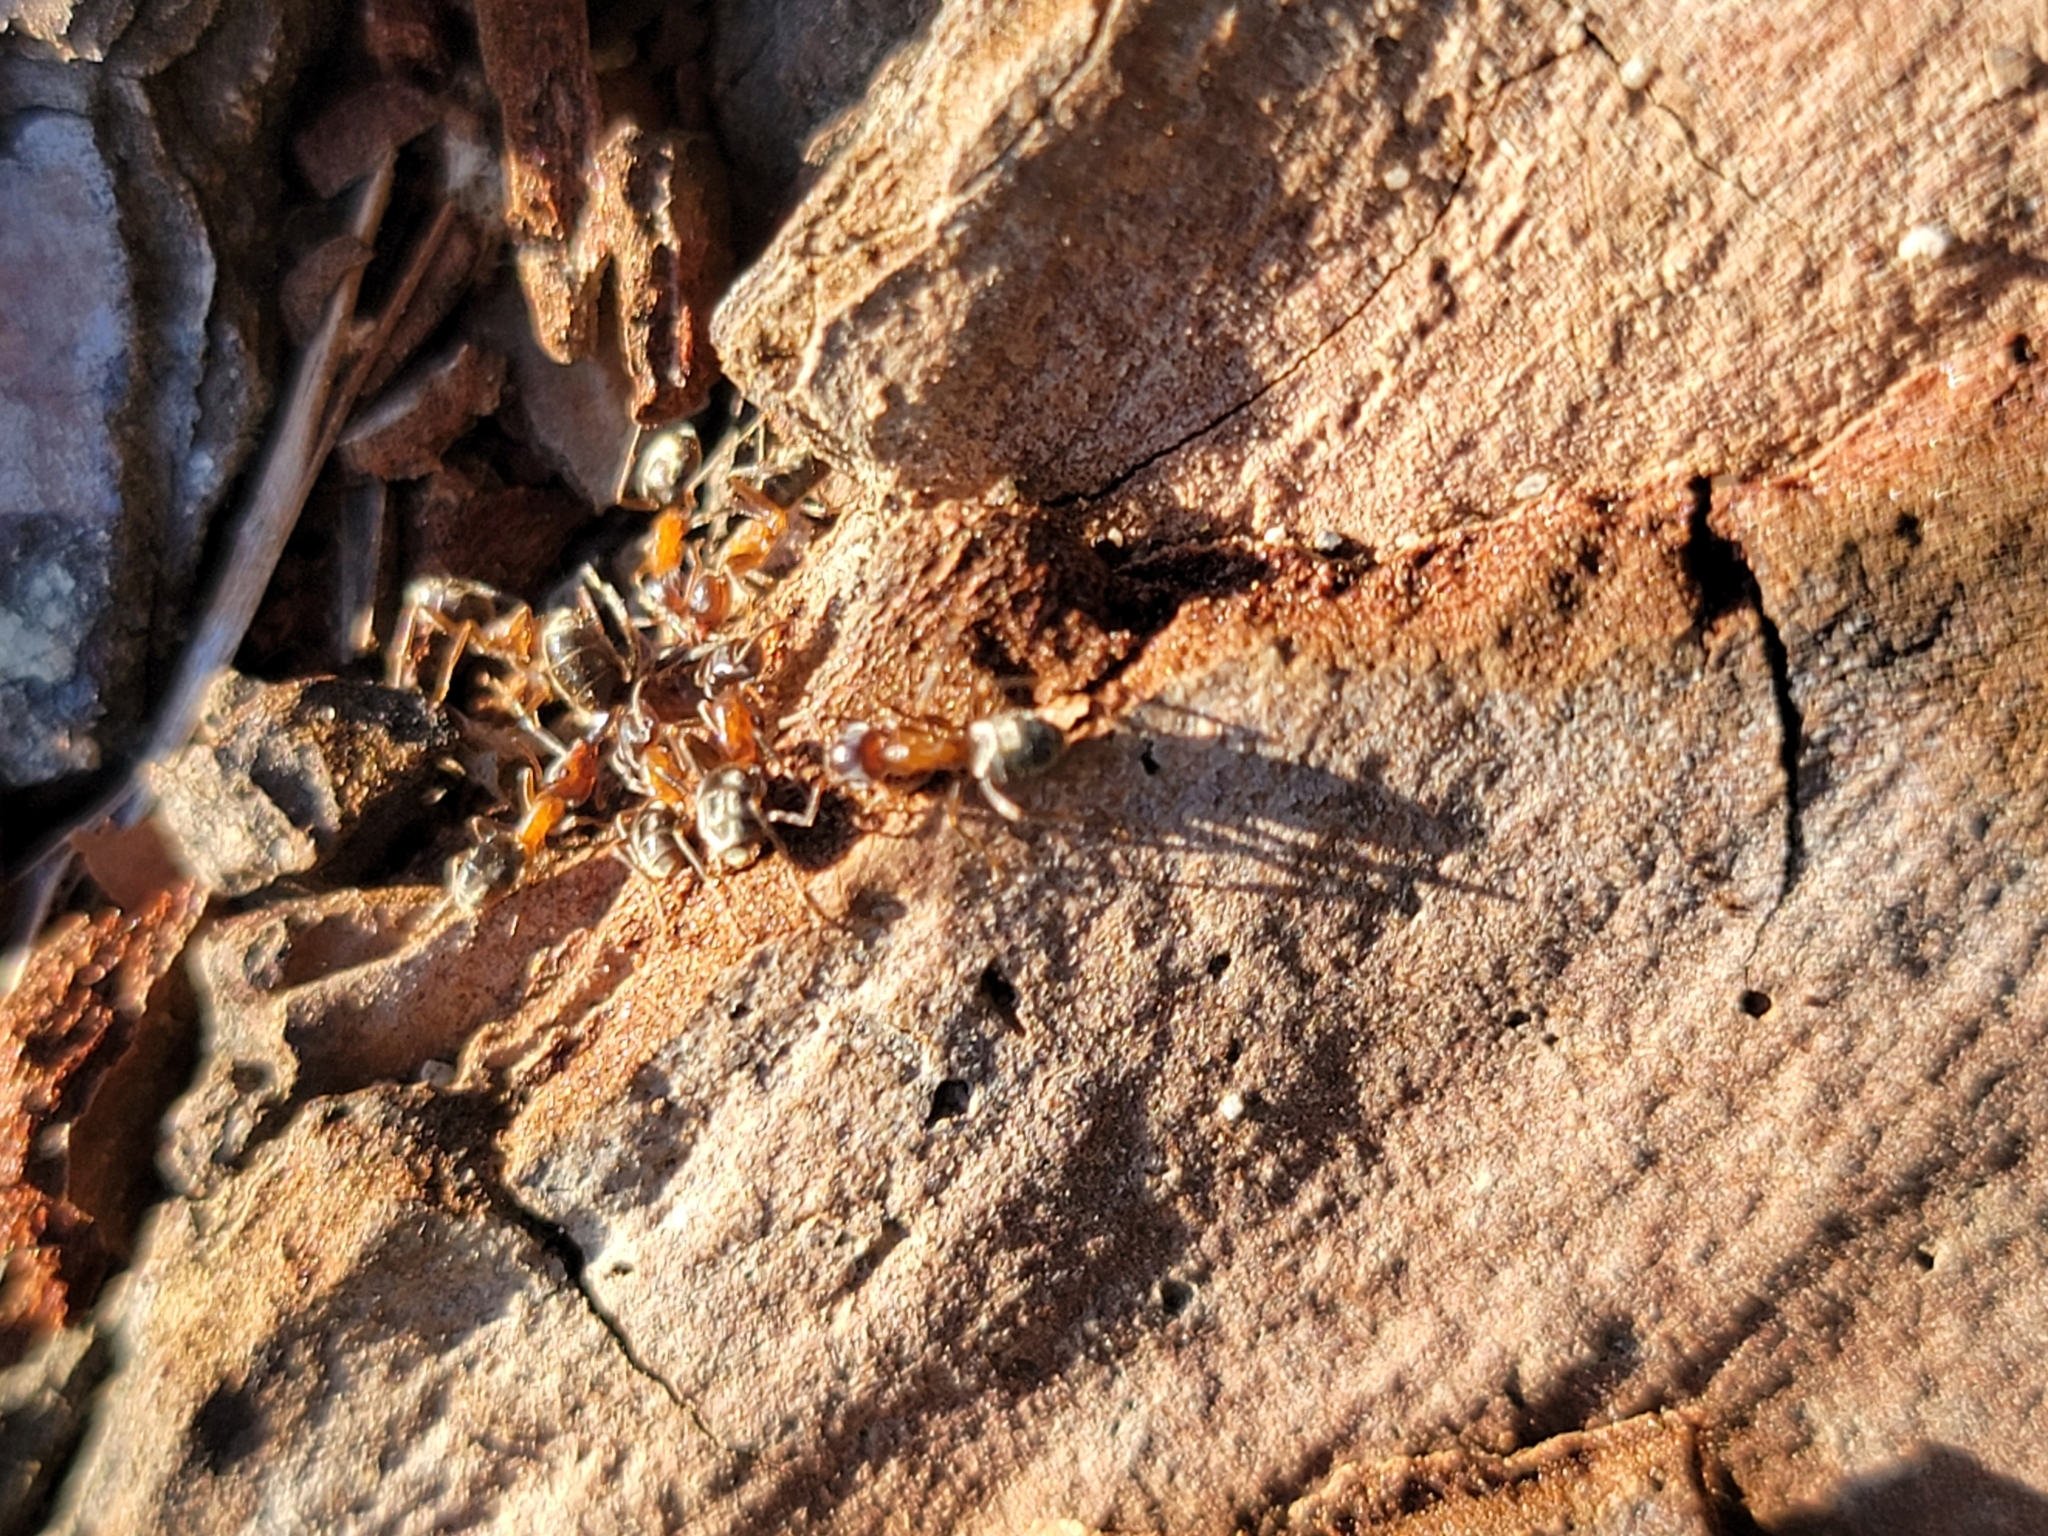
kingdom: Animalia
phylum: Arthropoda
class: Insecta
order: Hymenoptera
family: Formicidae
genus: Liometopum
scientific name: Liometopum occidentale
